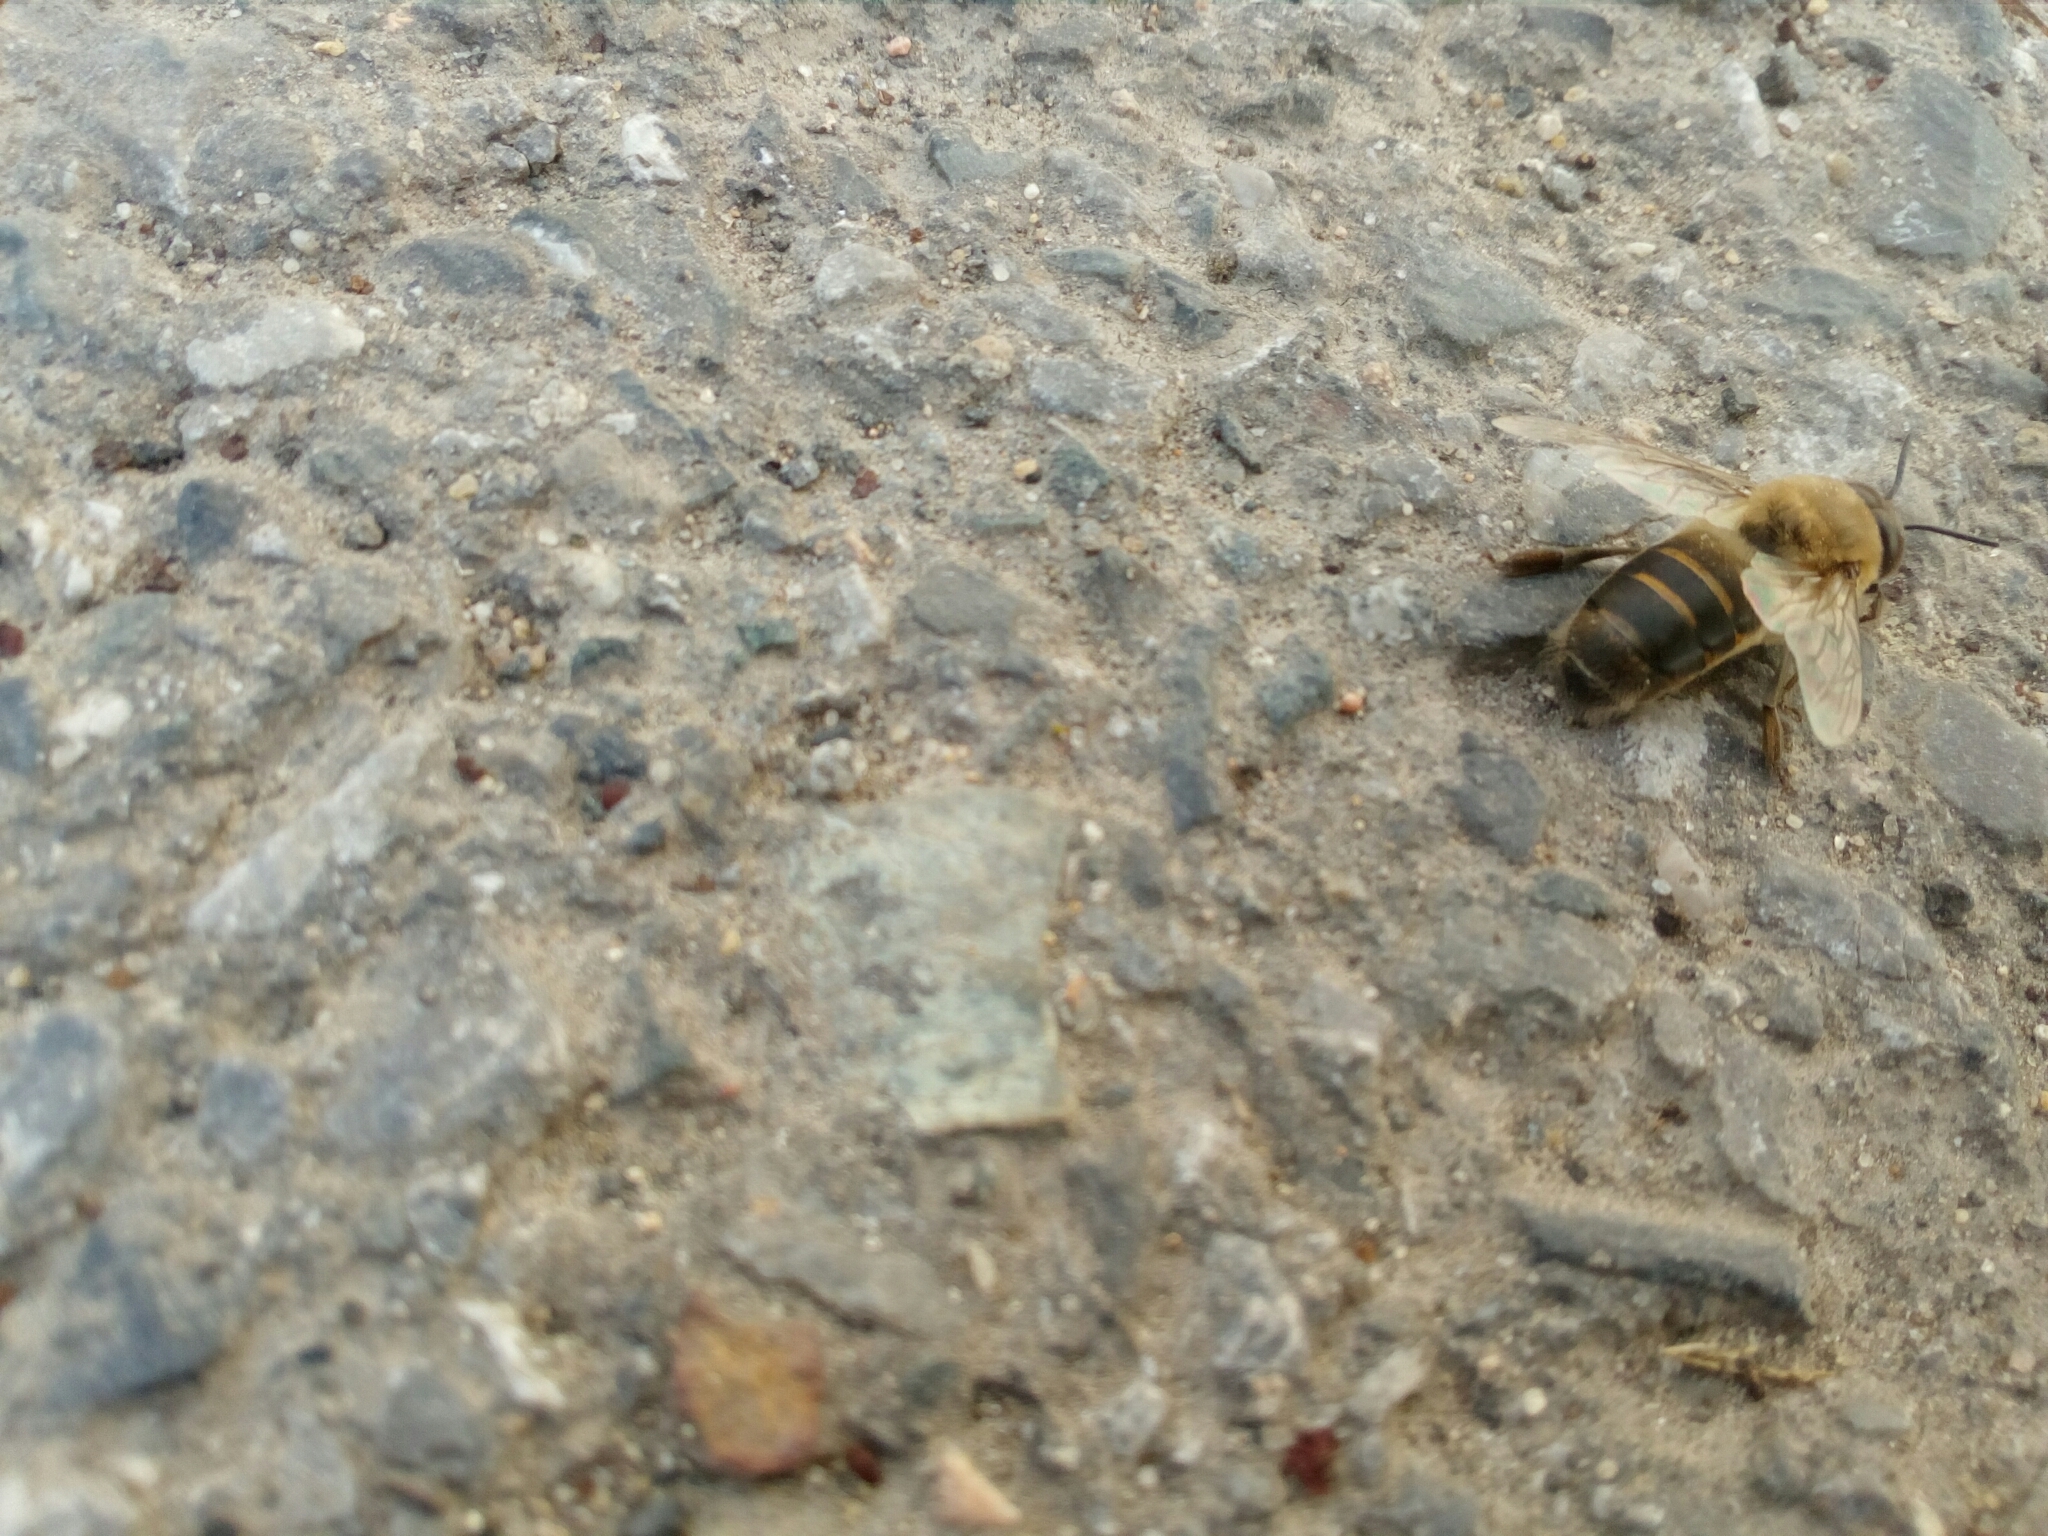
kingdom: Animalia
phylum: Arthropoda
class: Insecta
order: Hymenoptera
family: Apidae
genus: Apis
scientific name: Apis mellifera
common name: Honey bee
